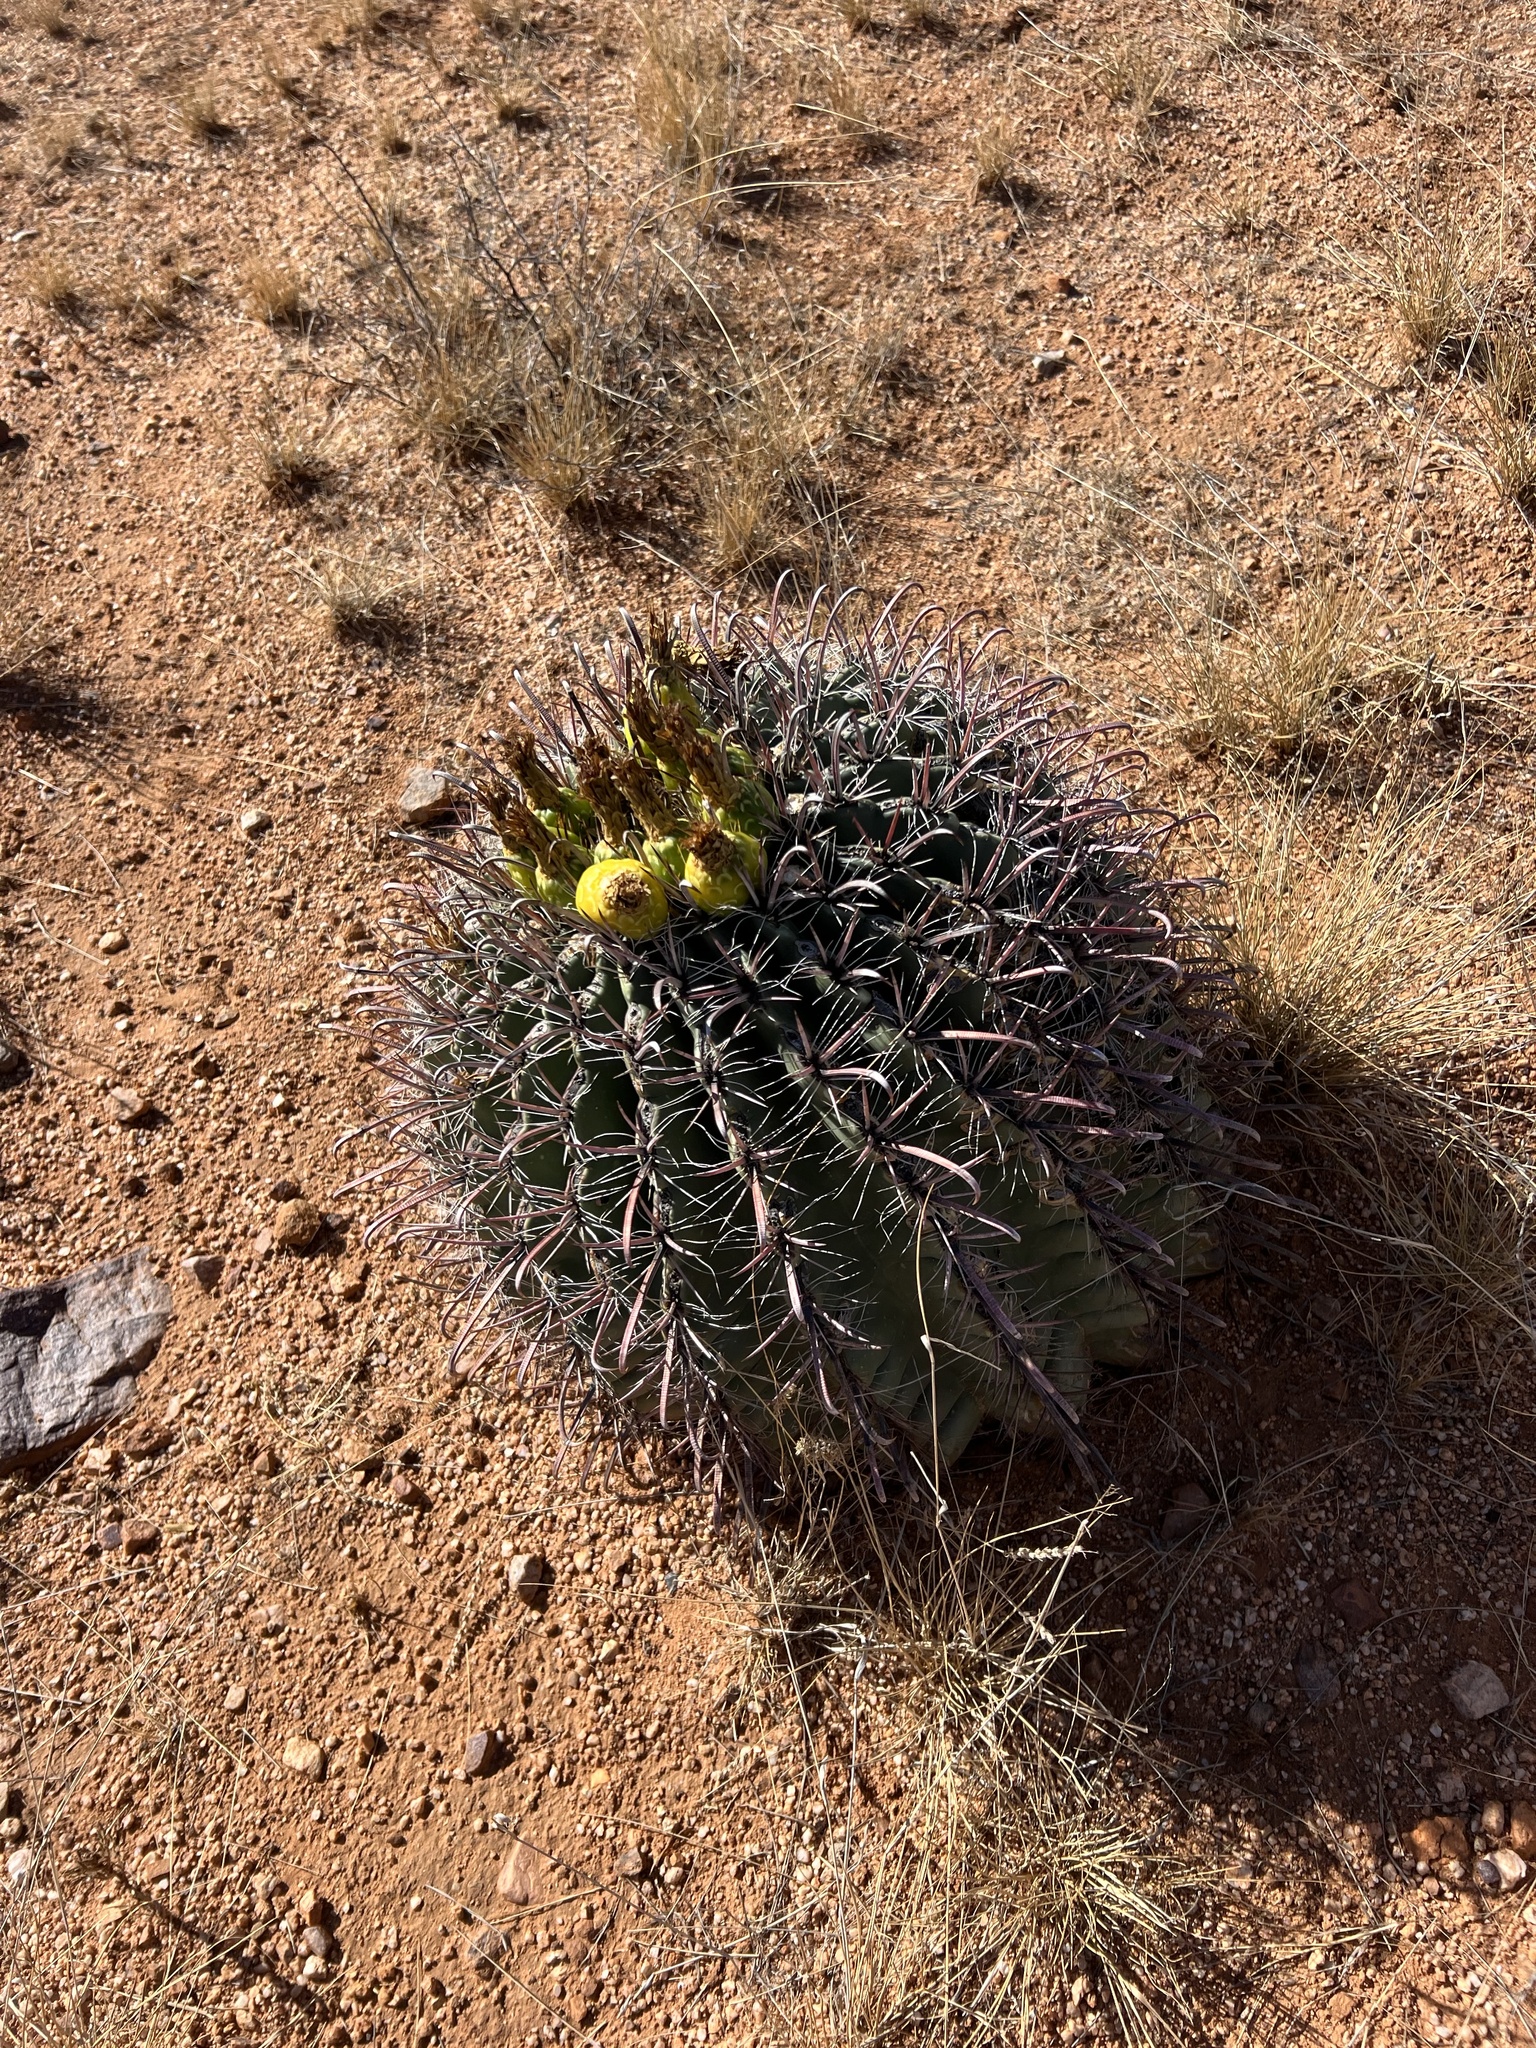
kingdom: Plantae
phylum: Tracheophyta
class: Magnoliopsida
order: Caryophyllales
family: Cactaceae
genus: Ferocactus
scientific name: Ferocactus wislizeni
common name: Candy barrel cactus
